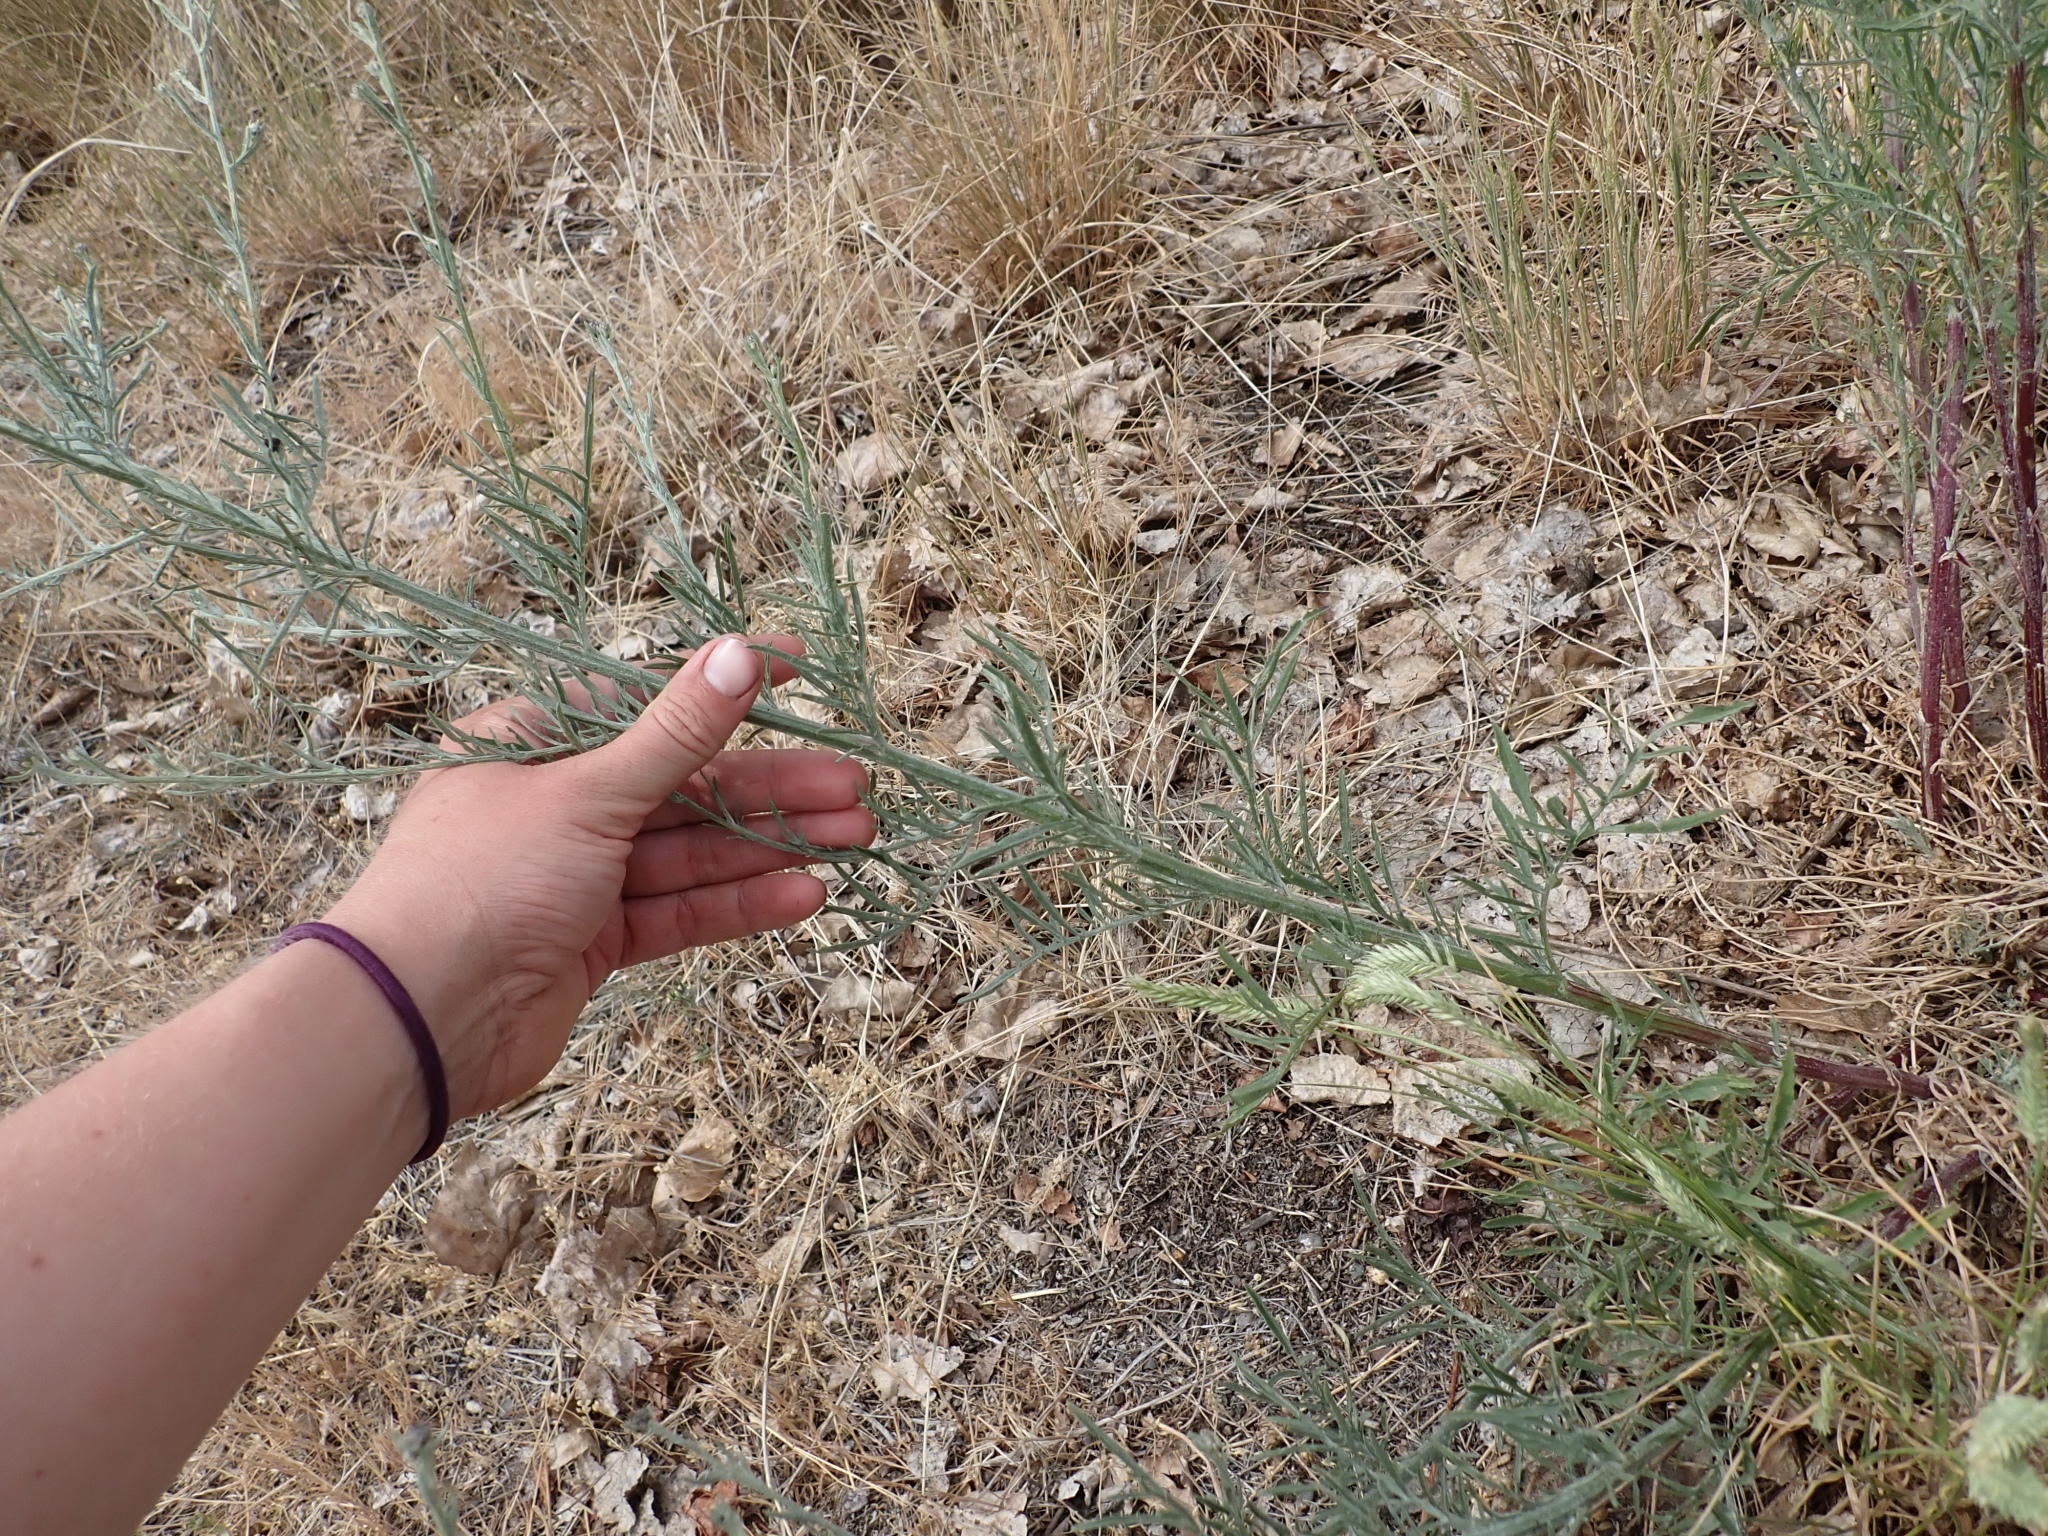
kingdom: Plantae
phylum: Tracheophyta
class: Magnoliopsida
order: Asterales
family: Asteraceae
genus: Centaurea
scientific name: Centaurea stoebe
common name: Spotted knapweed
